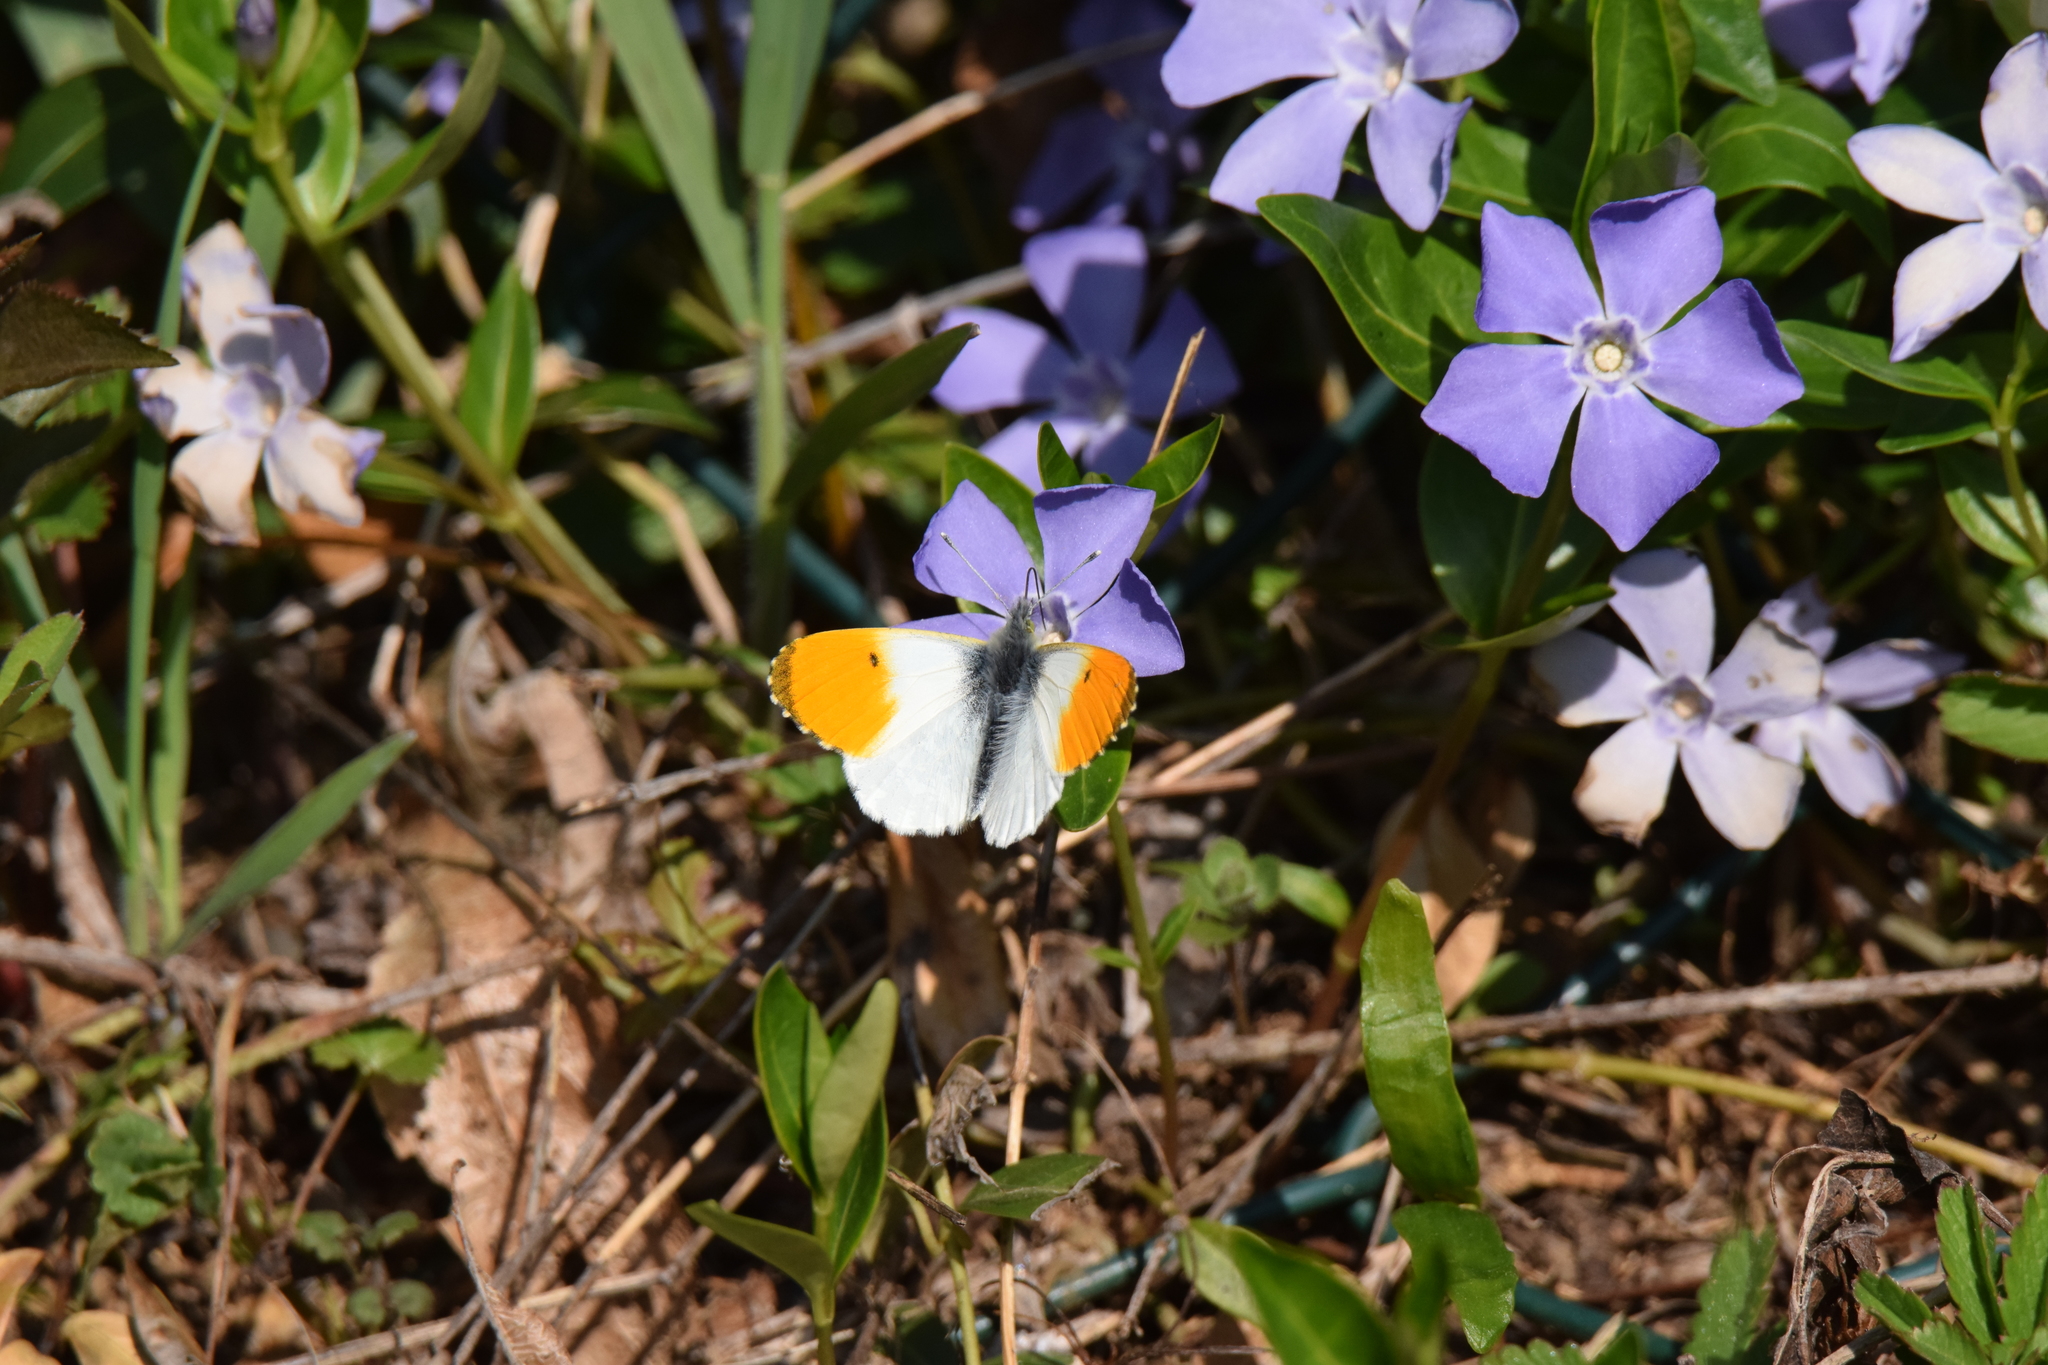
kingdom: Animalia
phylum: Arthropoda
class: Insecta
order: Lepidoptera
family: Pieridae
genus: Anthocharis
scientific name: Anthocharis cardamines
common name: Orange-tip
